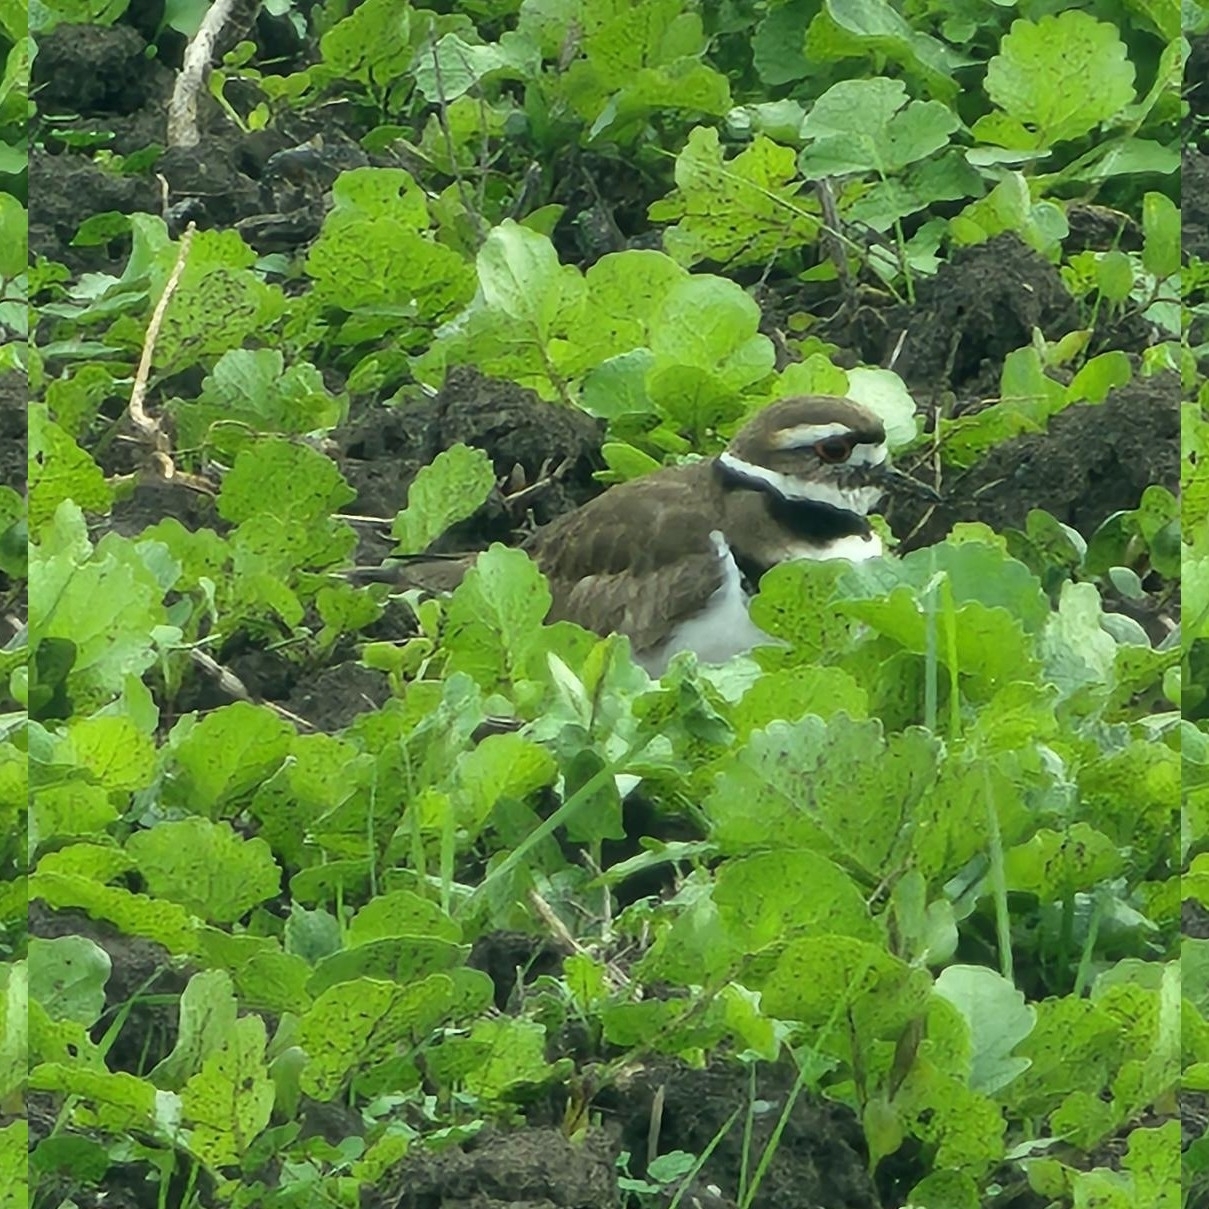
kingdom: Animalia
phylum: Chordata
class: Aves
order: Charadriiformes
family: Charadriidae
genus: Charadrius
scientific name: Charadrius vociferus
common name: Killdeer
